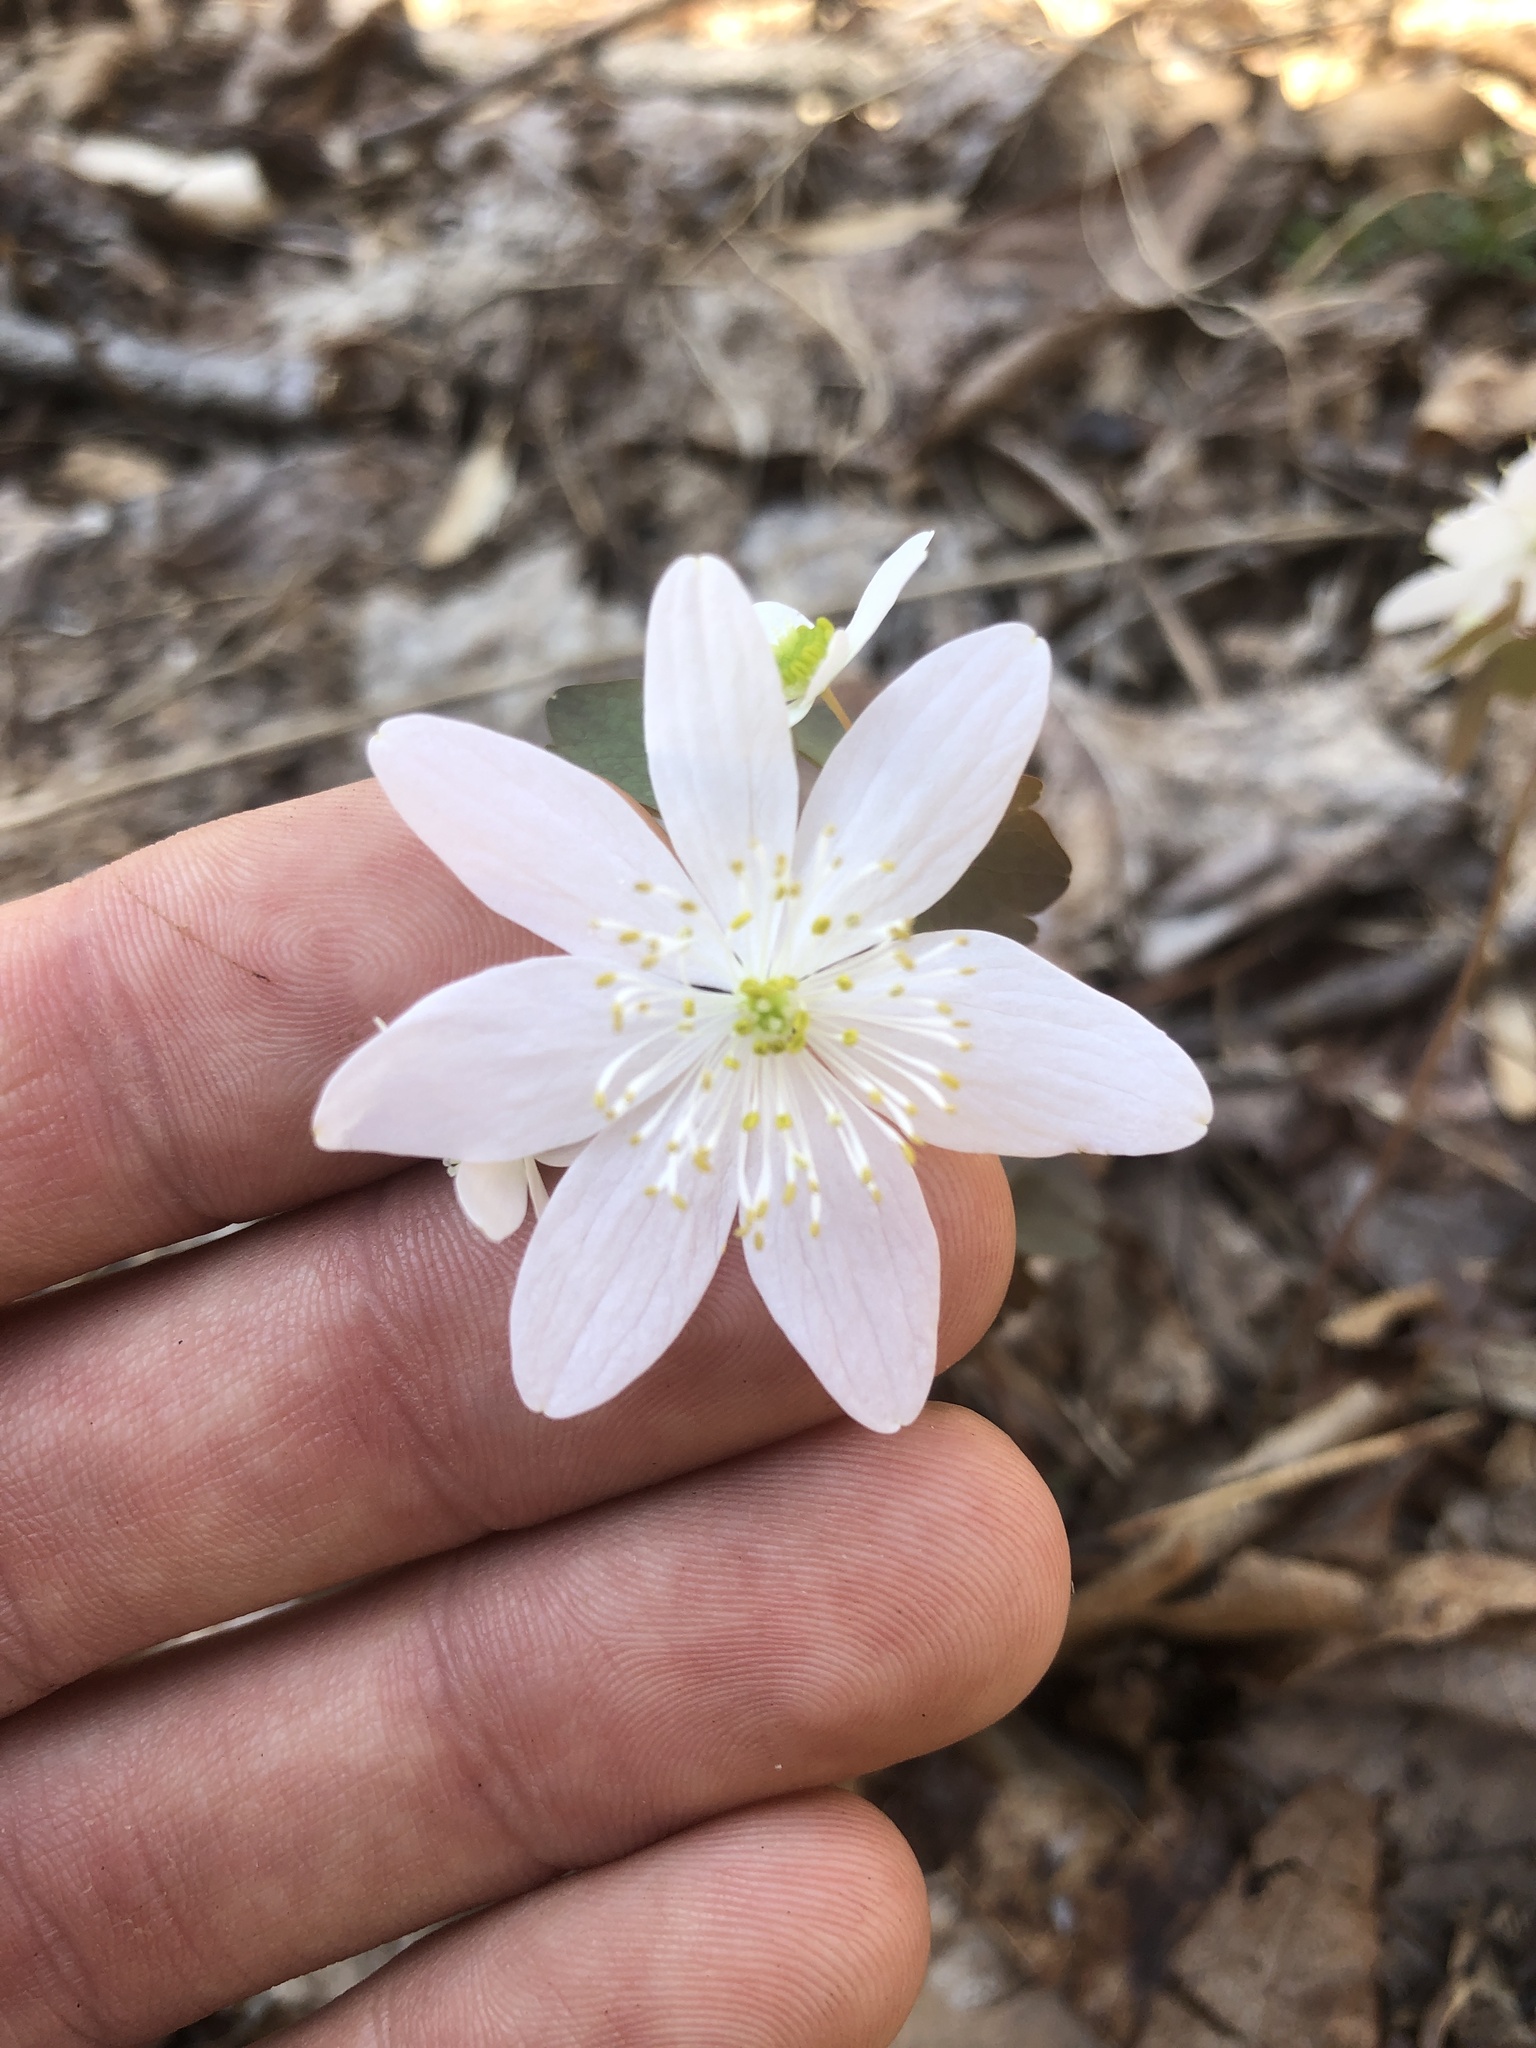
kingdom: Plantae
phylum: Tracheophyta
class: Magnoliopsida
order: Ranunculales
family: Ranunculaceae
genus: Thalictrum
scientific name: Thalictrum thalictroides
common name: Rue-anemone
